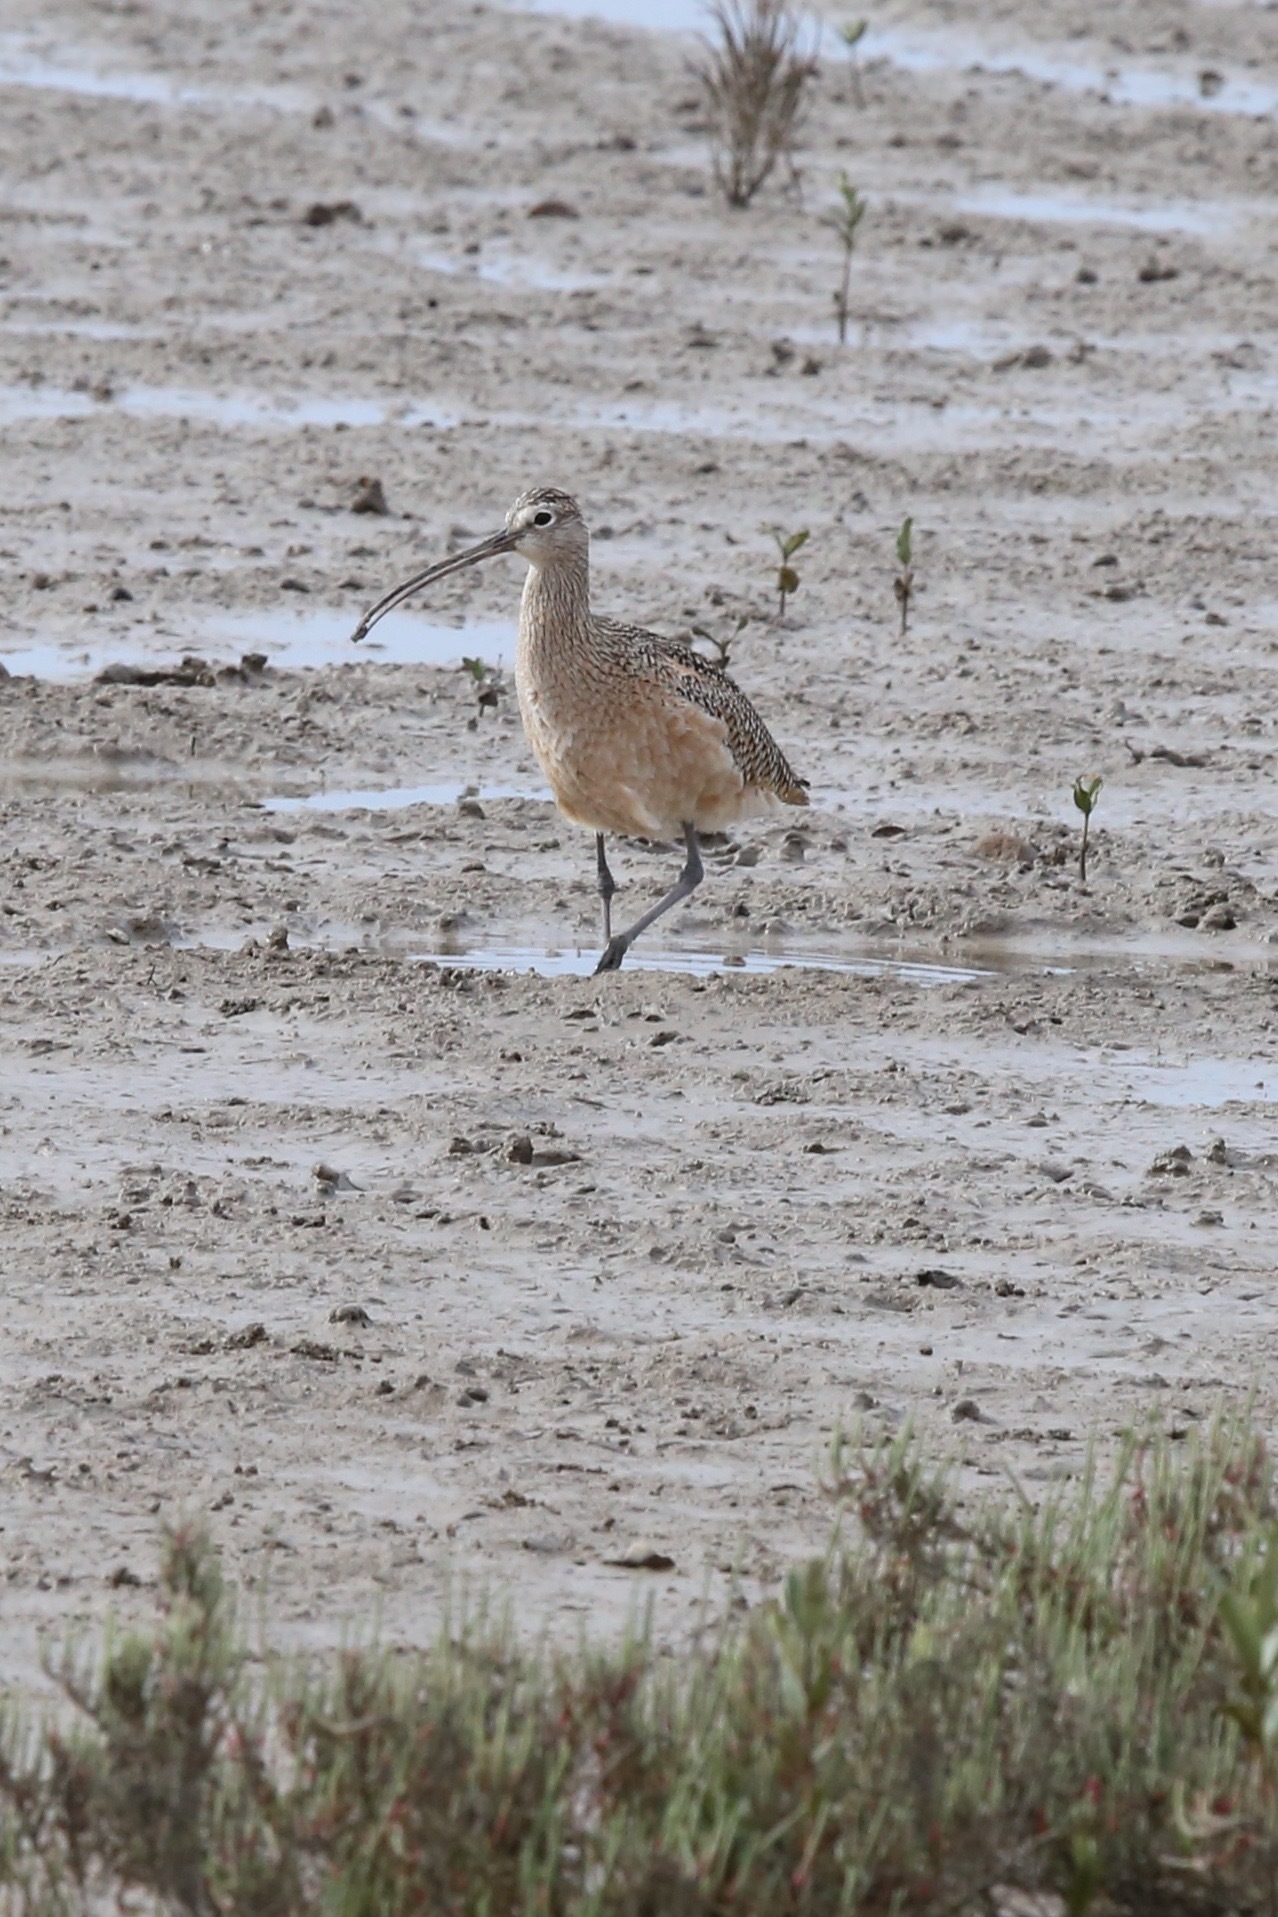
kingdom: Animalia
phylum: Chordata
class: Aves
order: Charadriiformes
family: Scolopacidae
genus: Numenius
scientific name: Numenius americanus
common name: Long-billed curlew
